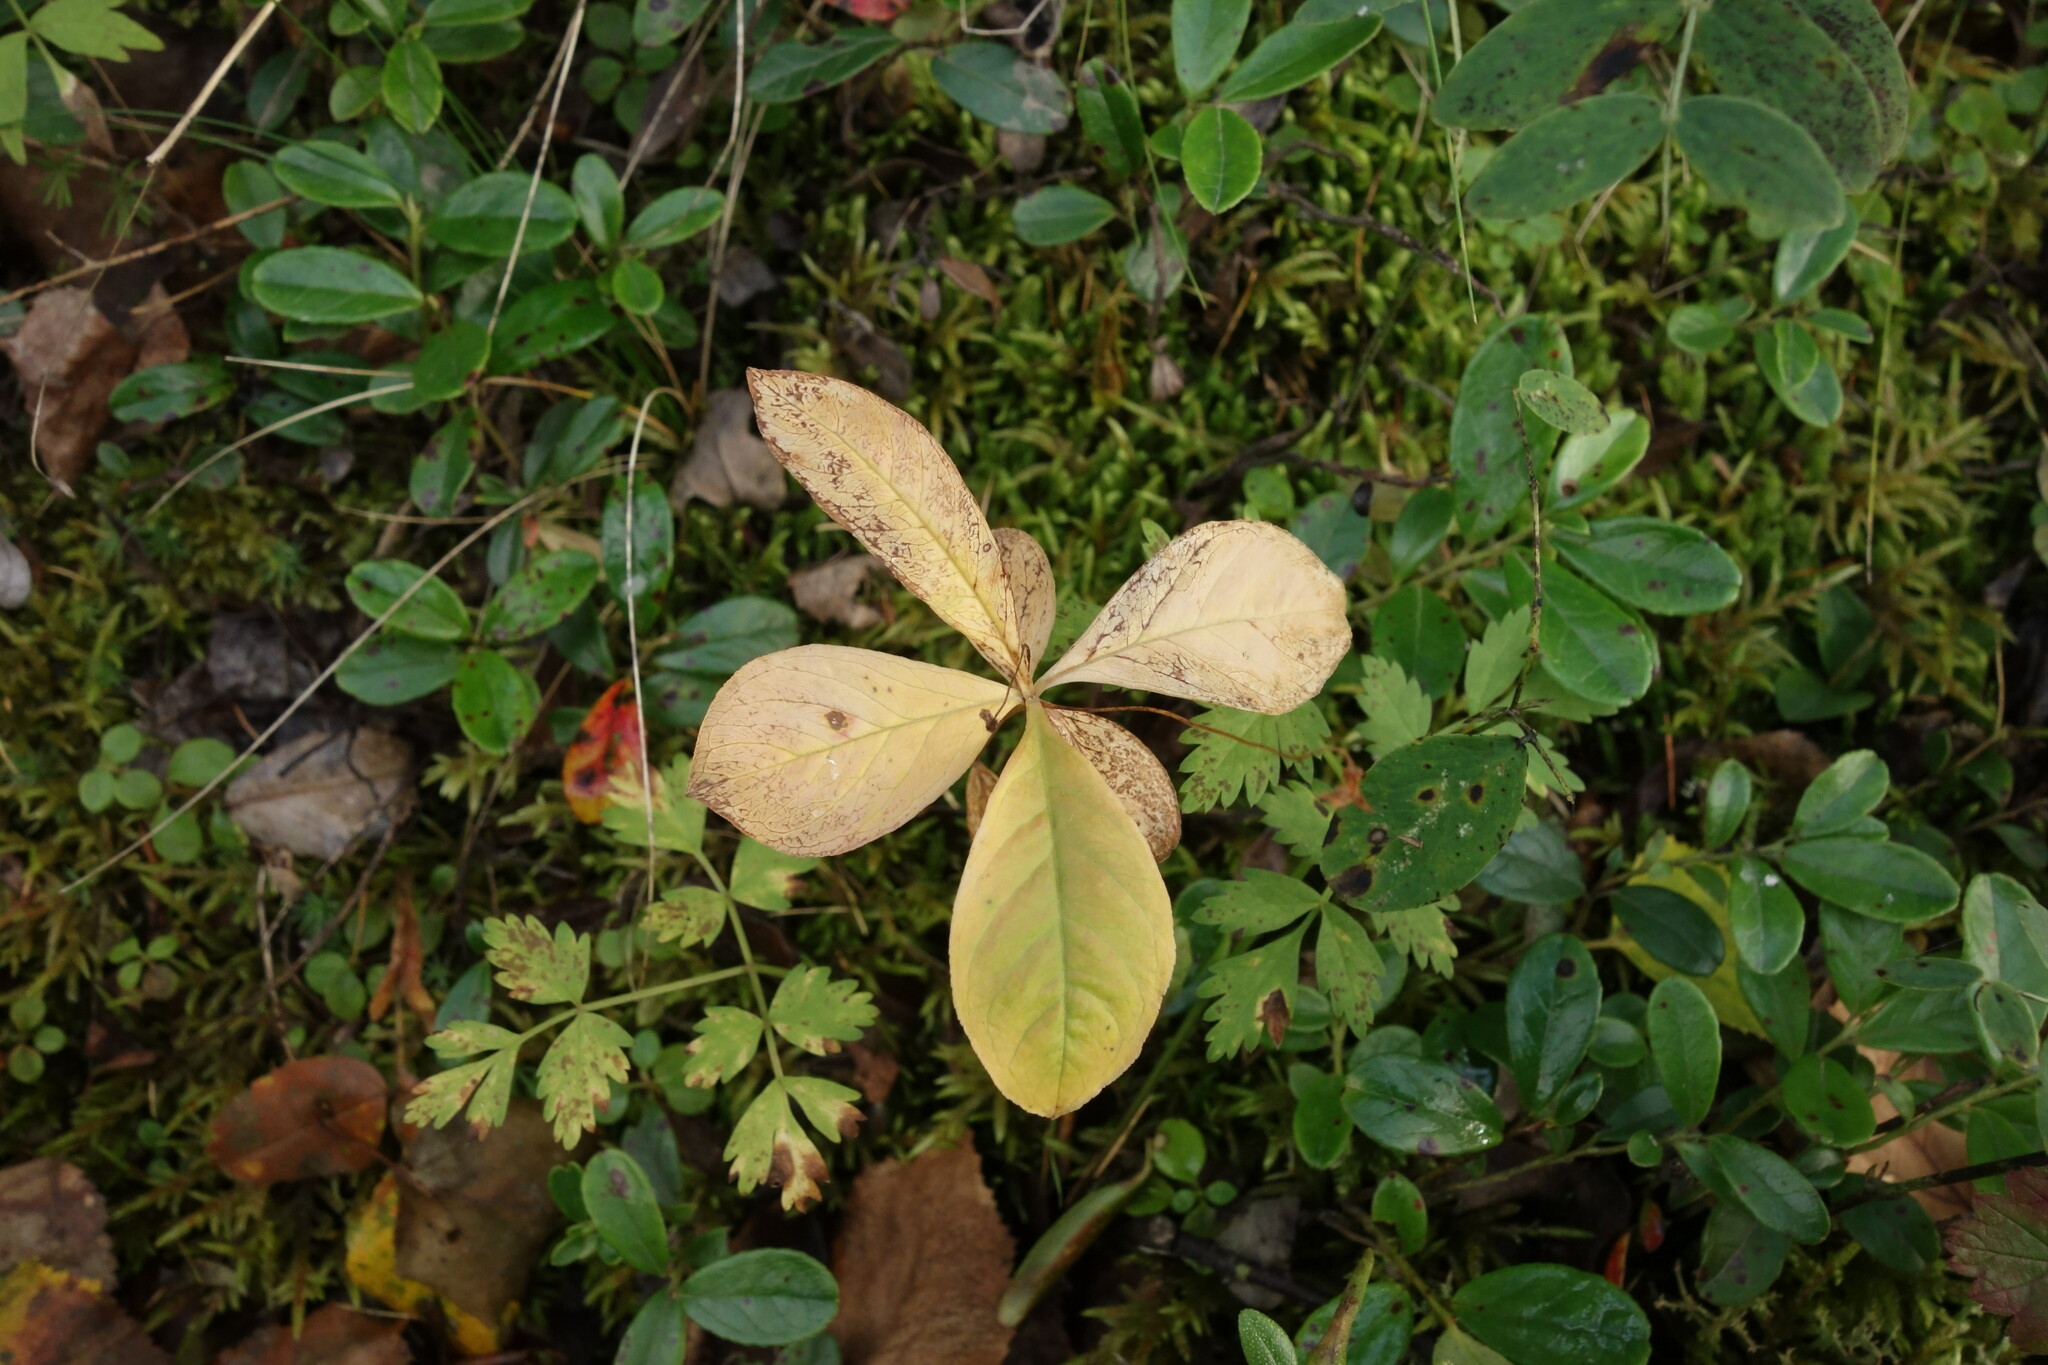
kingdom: Plantae
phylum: Tracheophyta
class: Magnoliopsida
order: Ericales
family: Primulaceae
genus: Lysimachia
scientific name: Lysimachia europaea
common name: Arctic starflower
